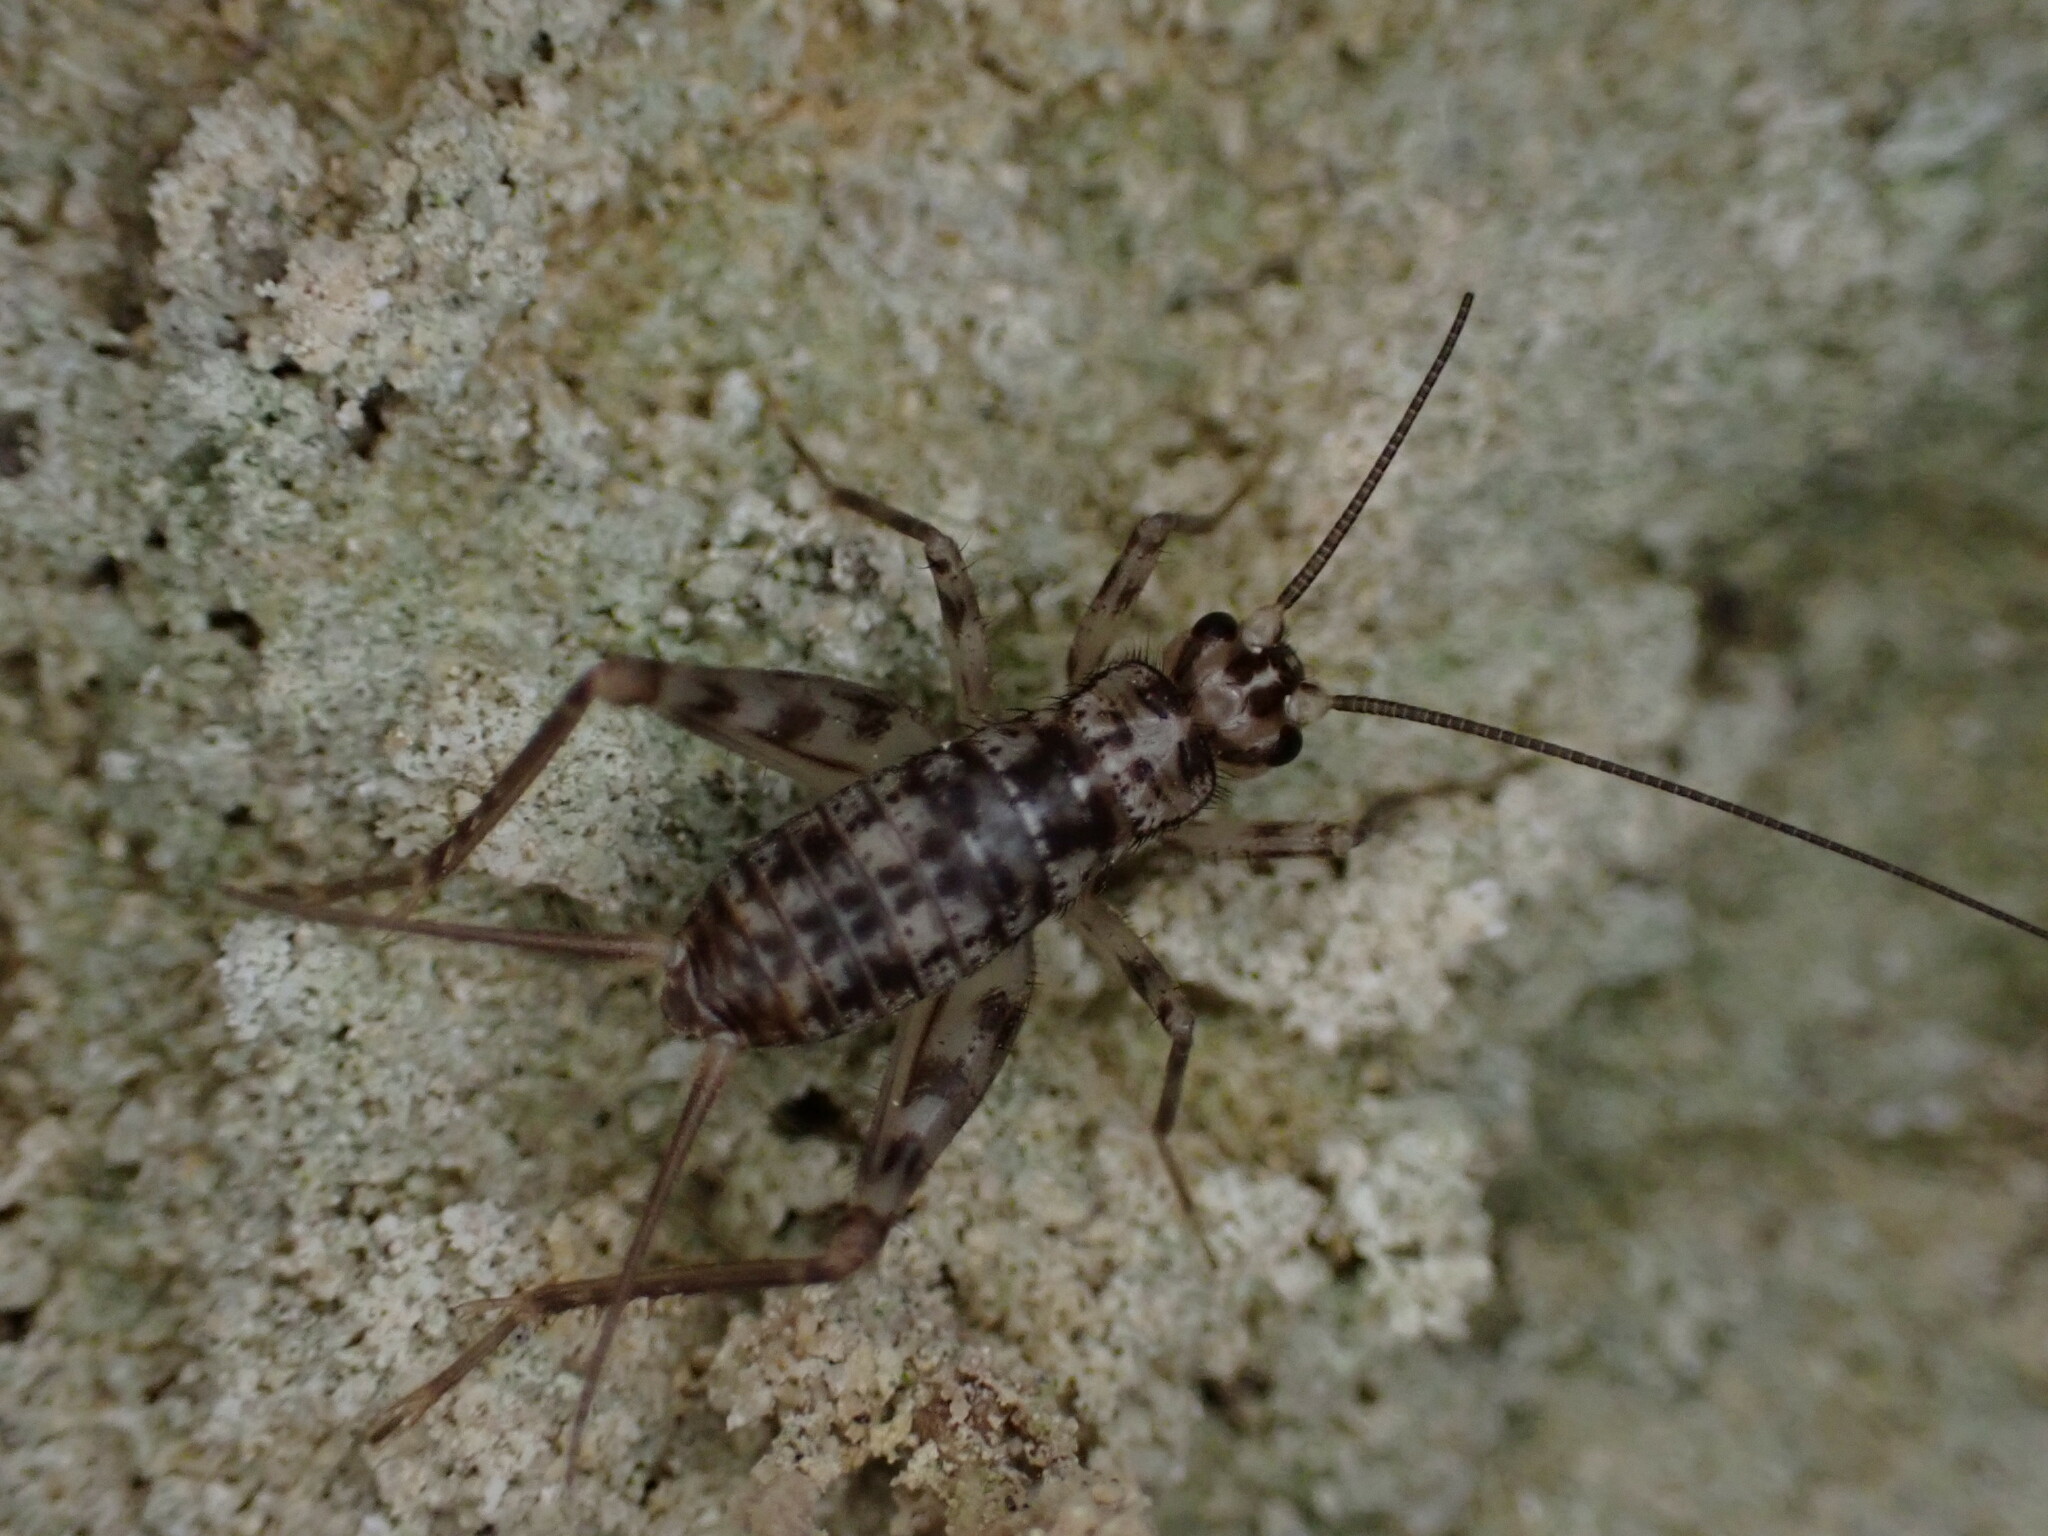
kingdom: Animalia
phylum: Arthropoda
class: Insecta
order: Orthoptera
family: Gryllidae
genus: Gryllomorpha
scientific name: Gryllomorpha dalmatina
